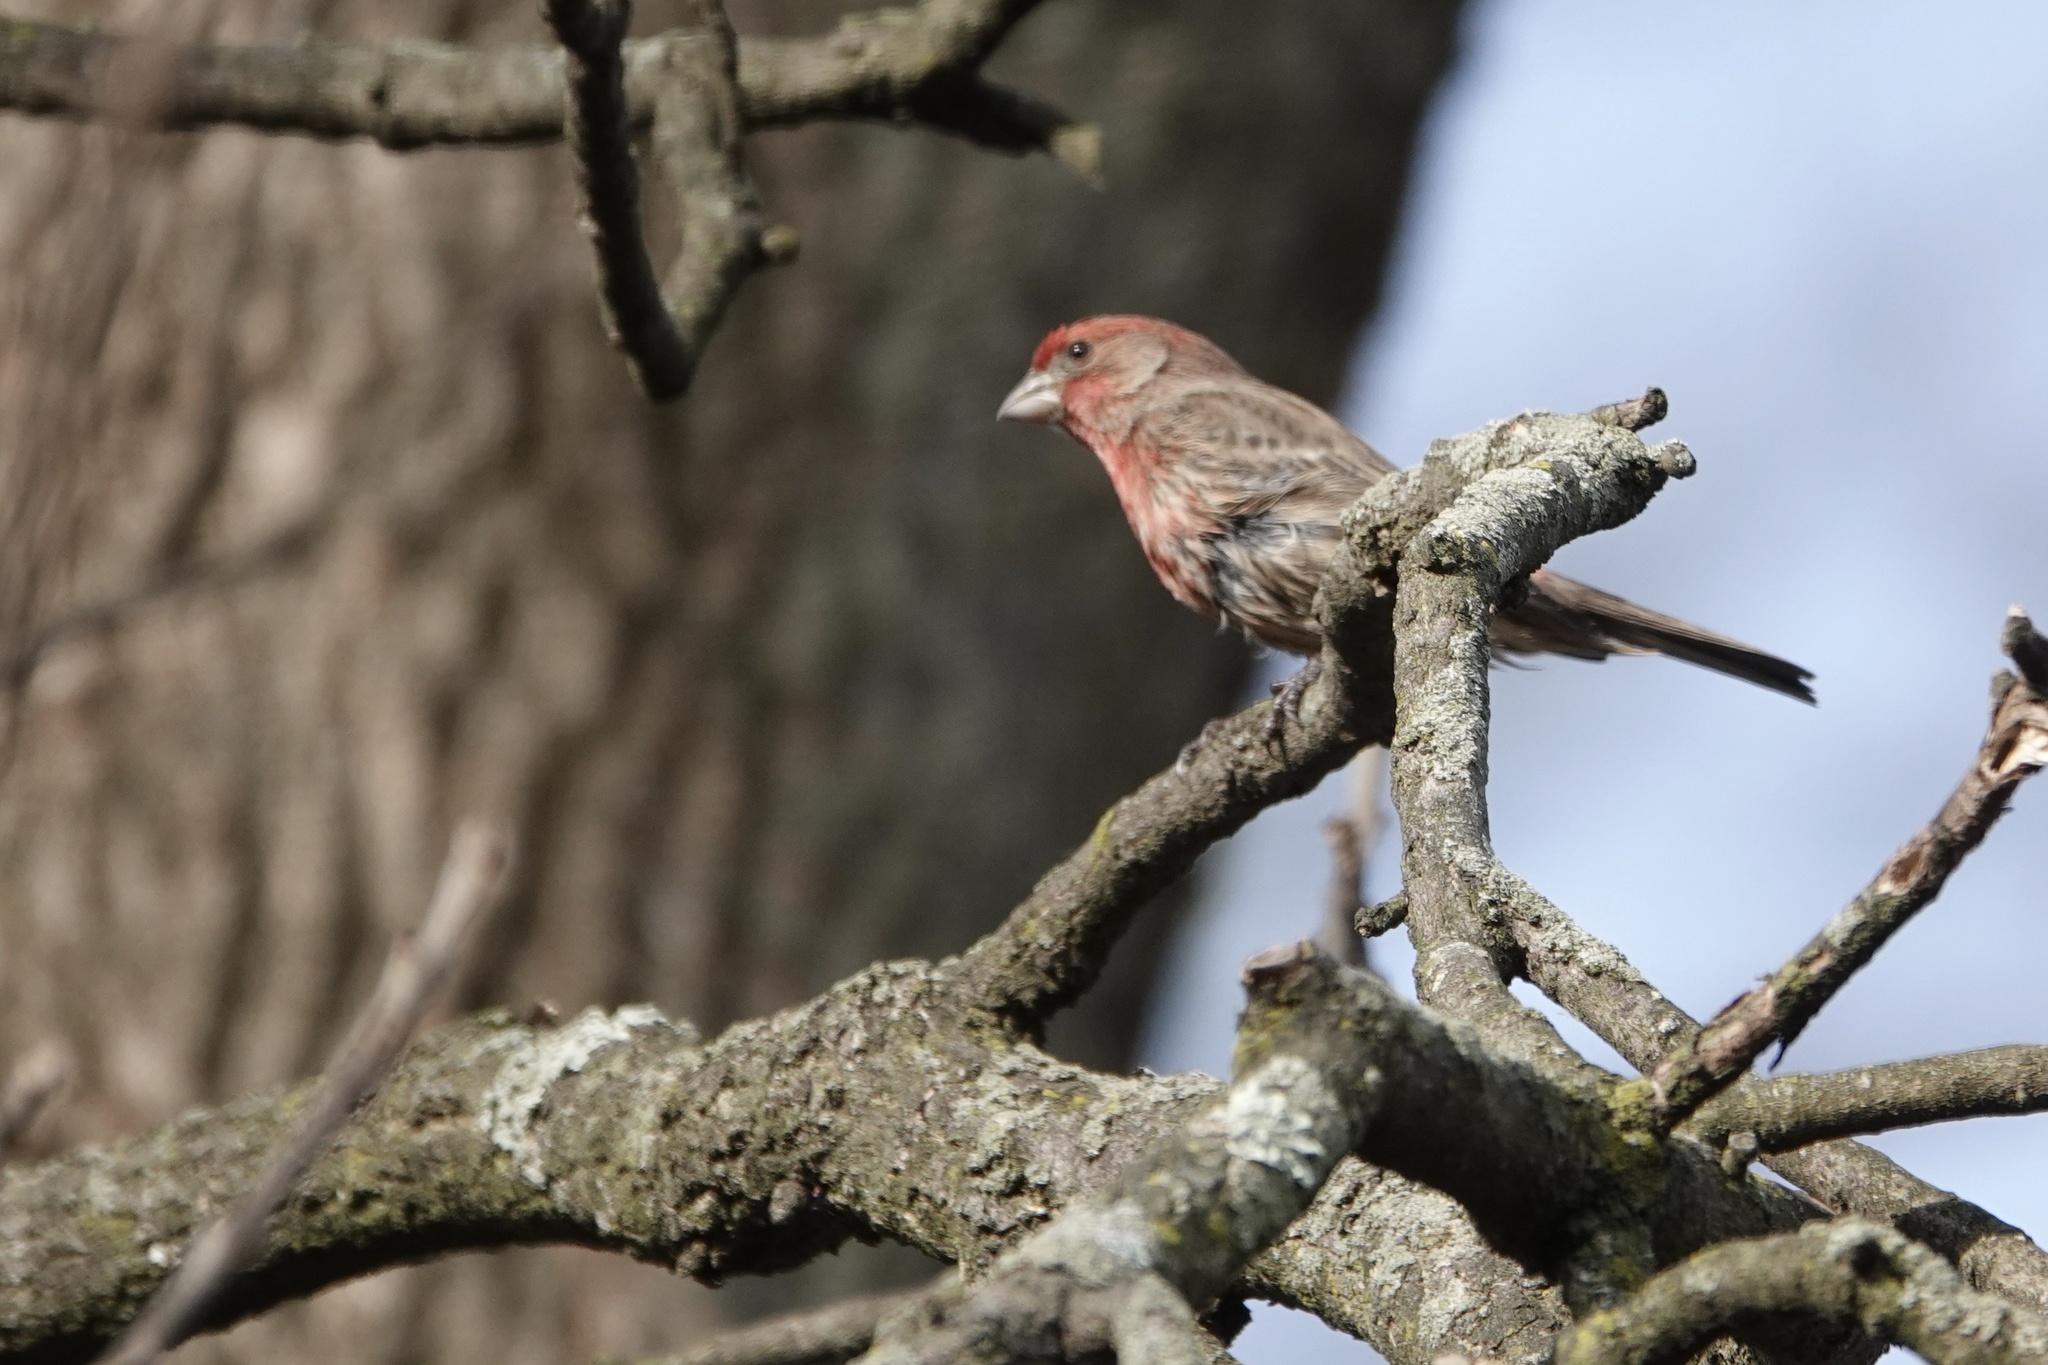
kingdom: Animalia
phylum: Chordata
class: Aves
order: Passeriformes
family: Fringillidae
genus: Haemorhous
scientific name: Haemorhous mexicanus
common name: House finch
